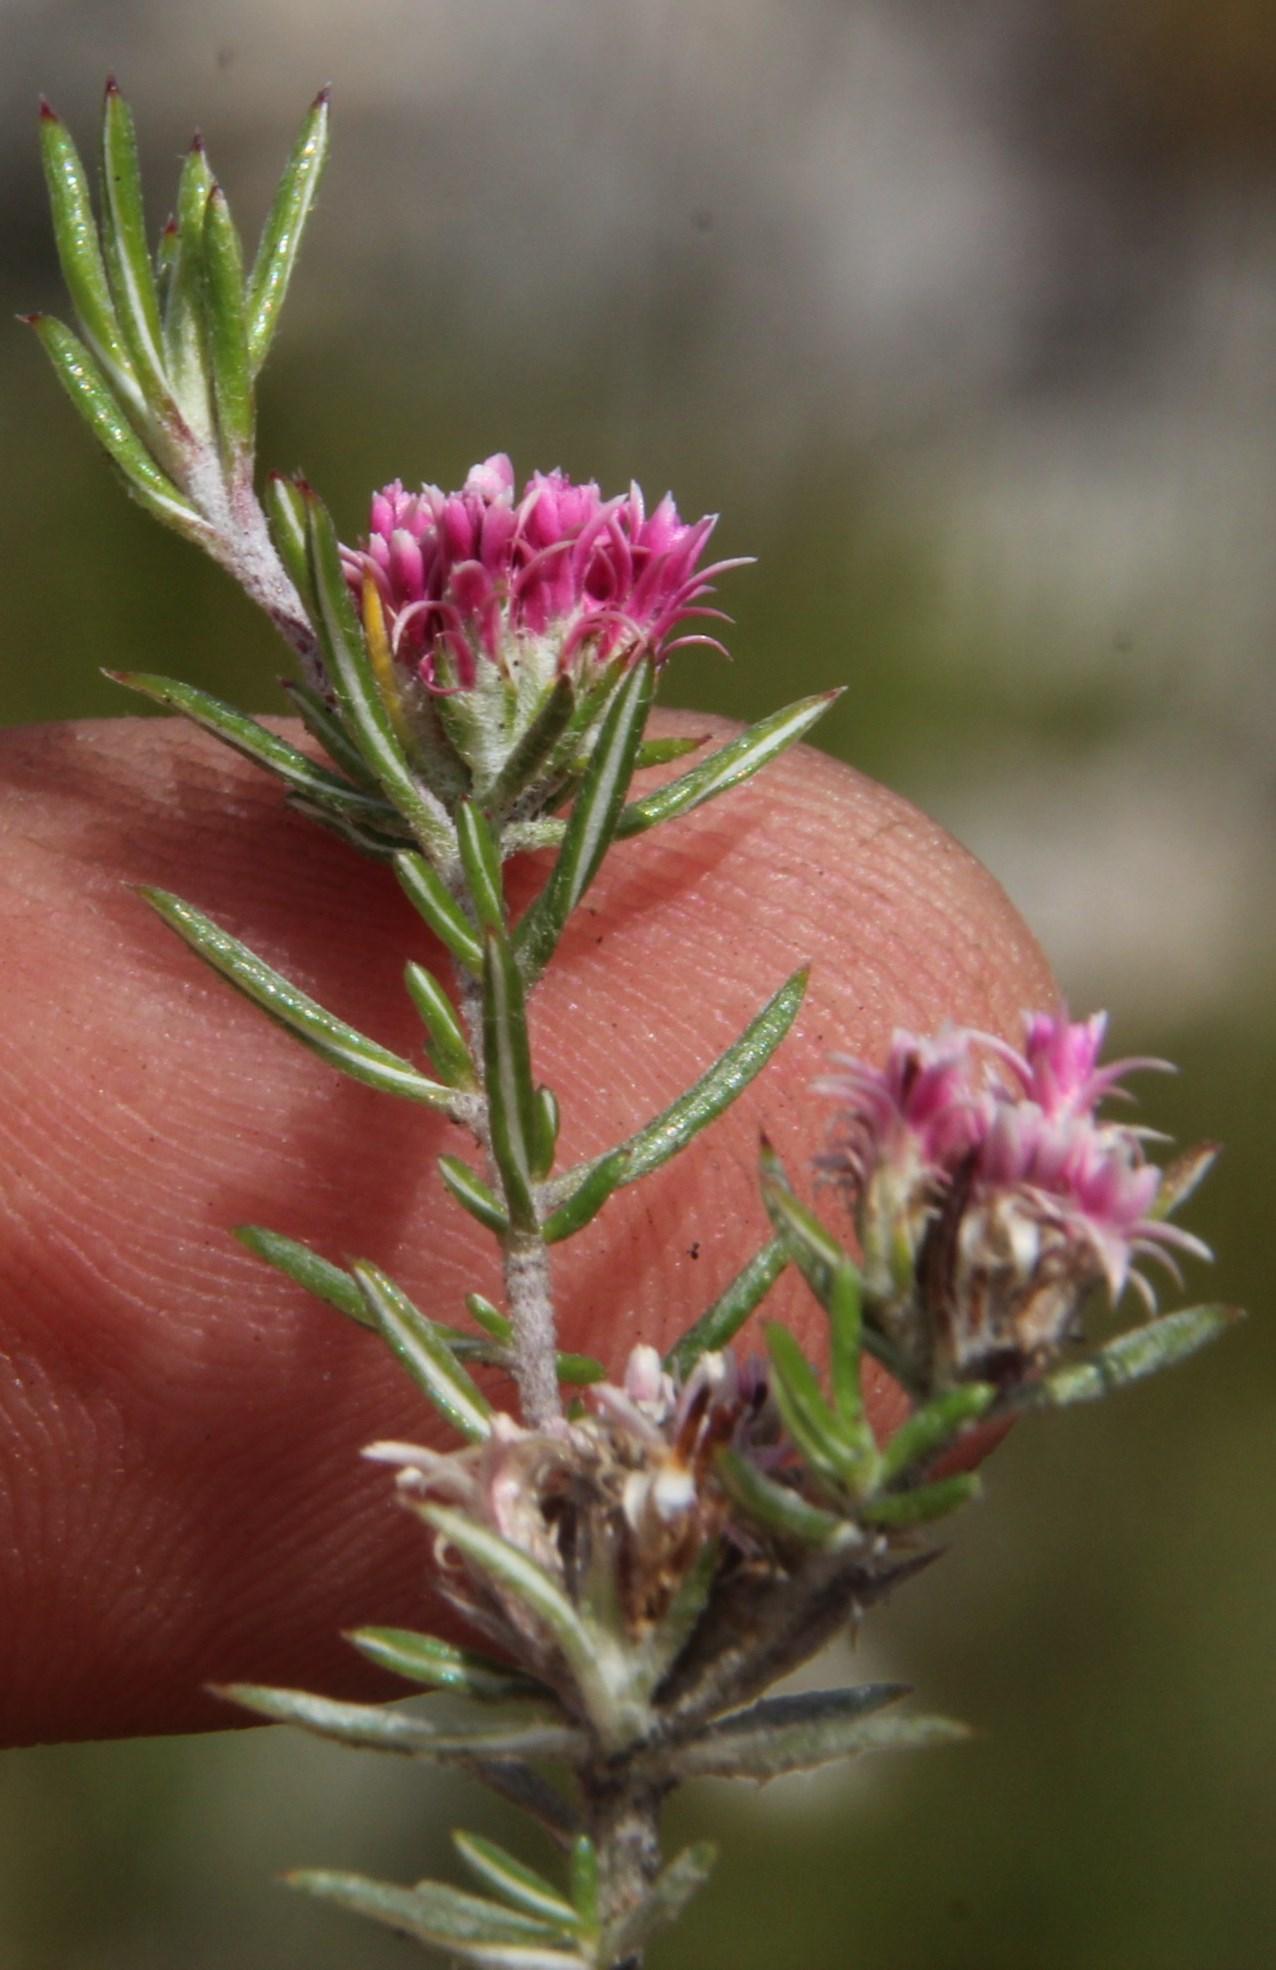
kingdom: Plantae
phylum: Tracheophyta
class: Magnoliopsida
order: Asterales
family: Asteraceae
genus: Metalasia
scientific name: Metalasia quinqueflora
